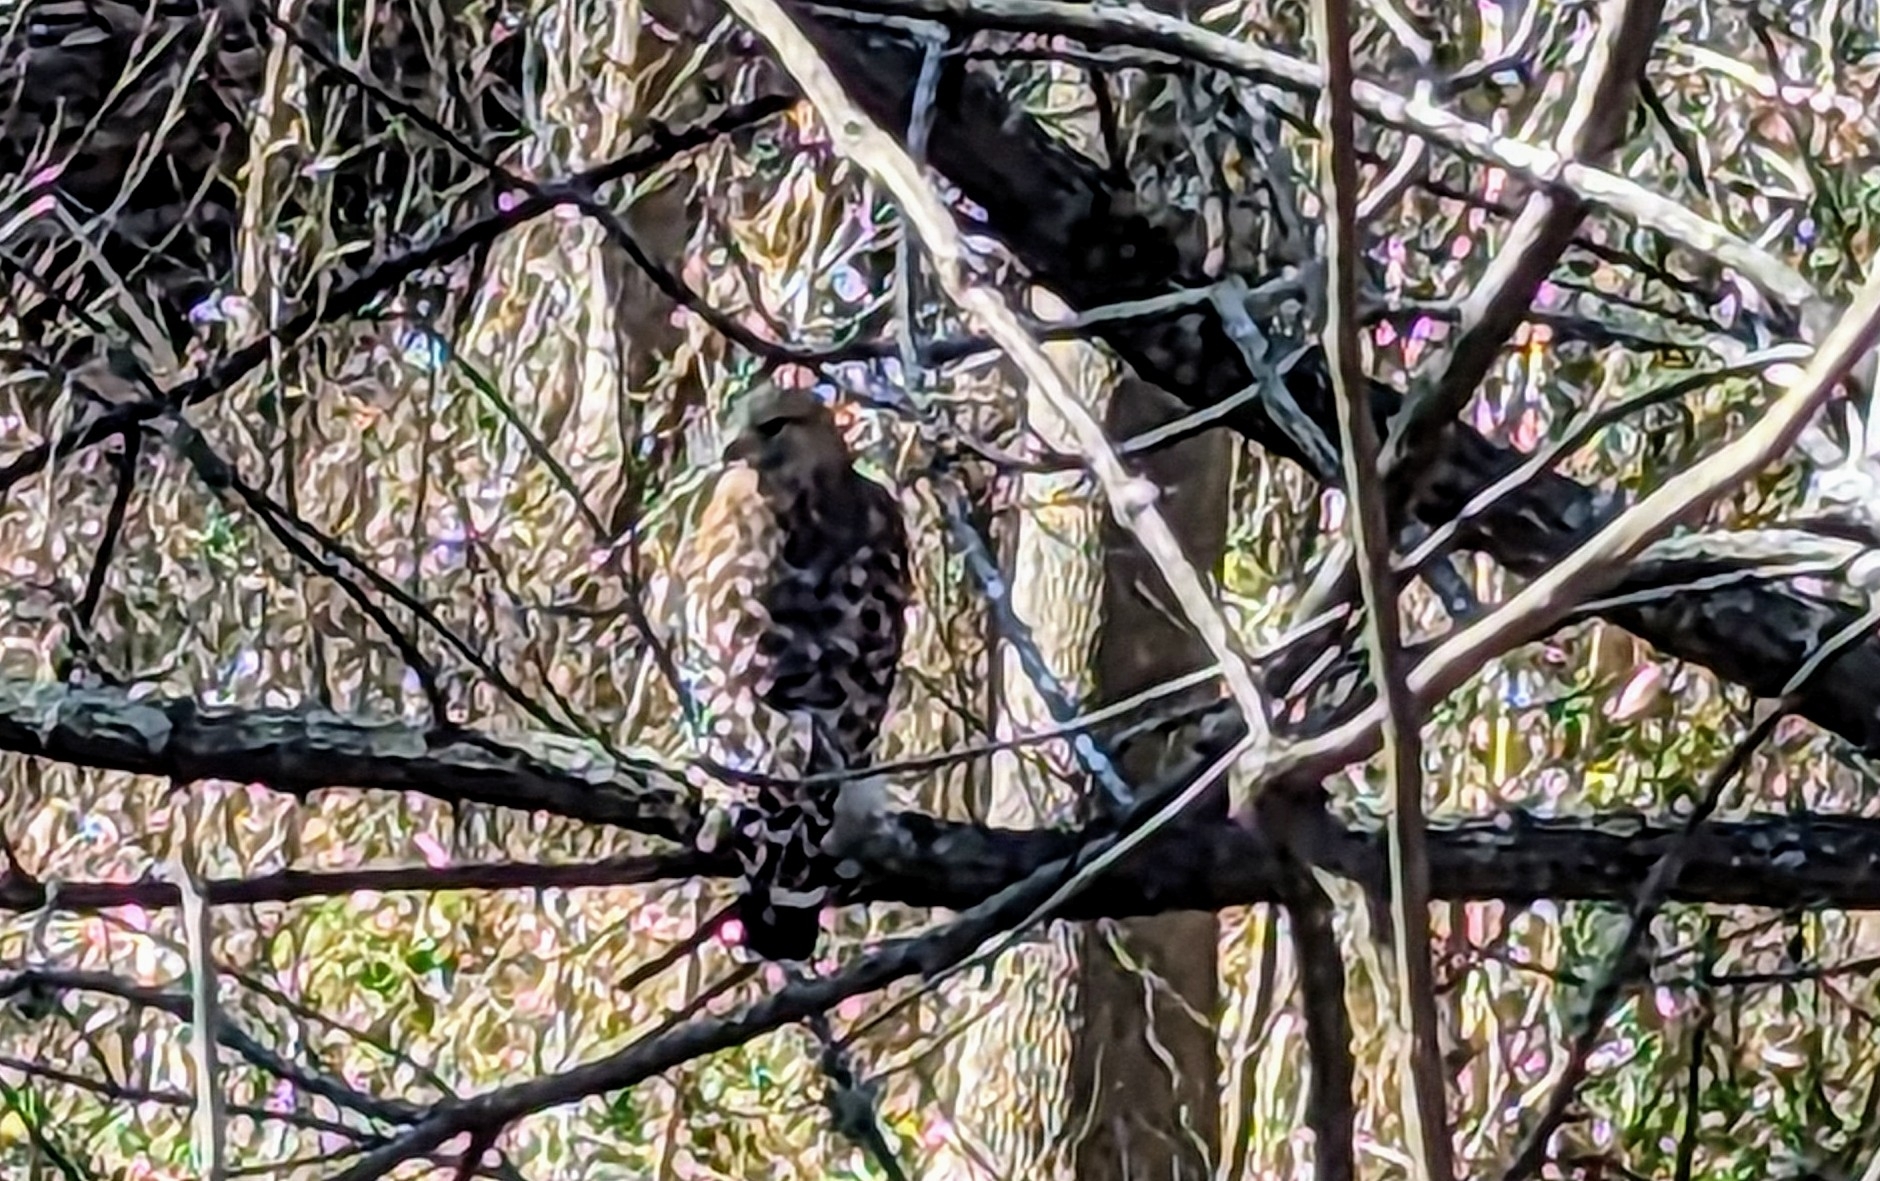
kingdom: Animalia
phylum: Chordata
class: Aves
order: Accipitriformes
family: Accipitridae
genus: Buteo
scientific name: Buteo lineatus
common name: Red-shouldered hawk
